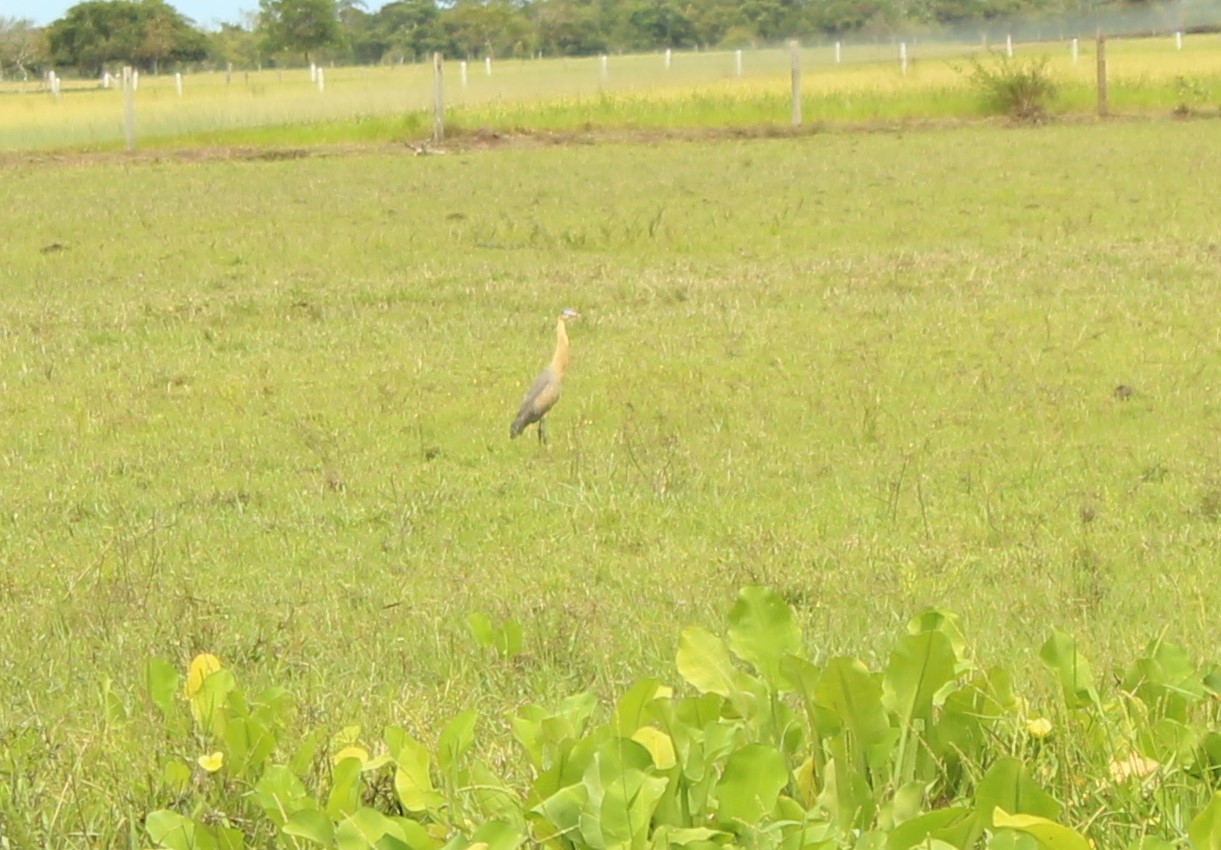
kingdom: Animalia
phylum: Chordata
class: Aves
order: Pelecaniformes
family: Ardeidae
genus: Syrigma
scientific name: Syrigma sibilatrix
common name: Whistling heron
